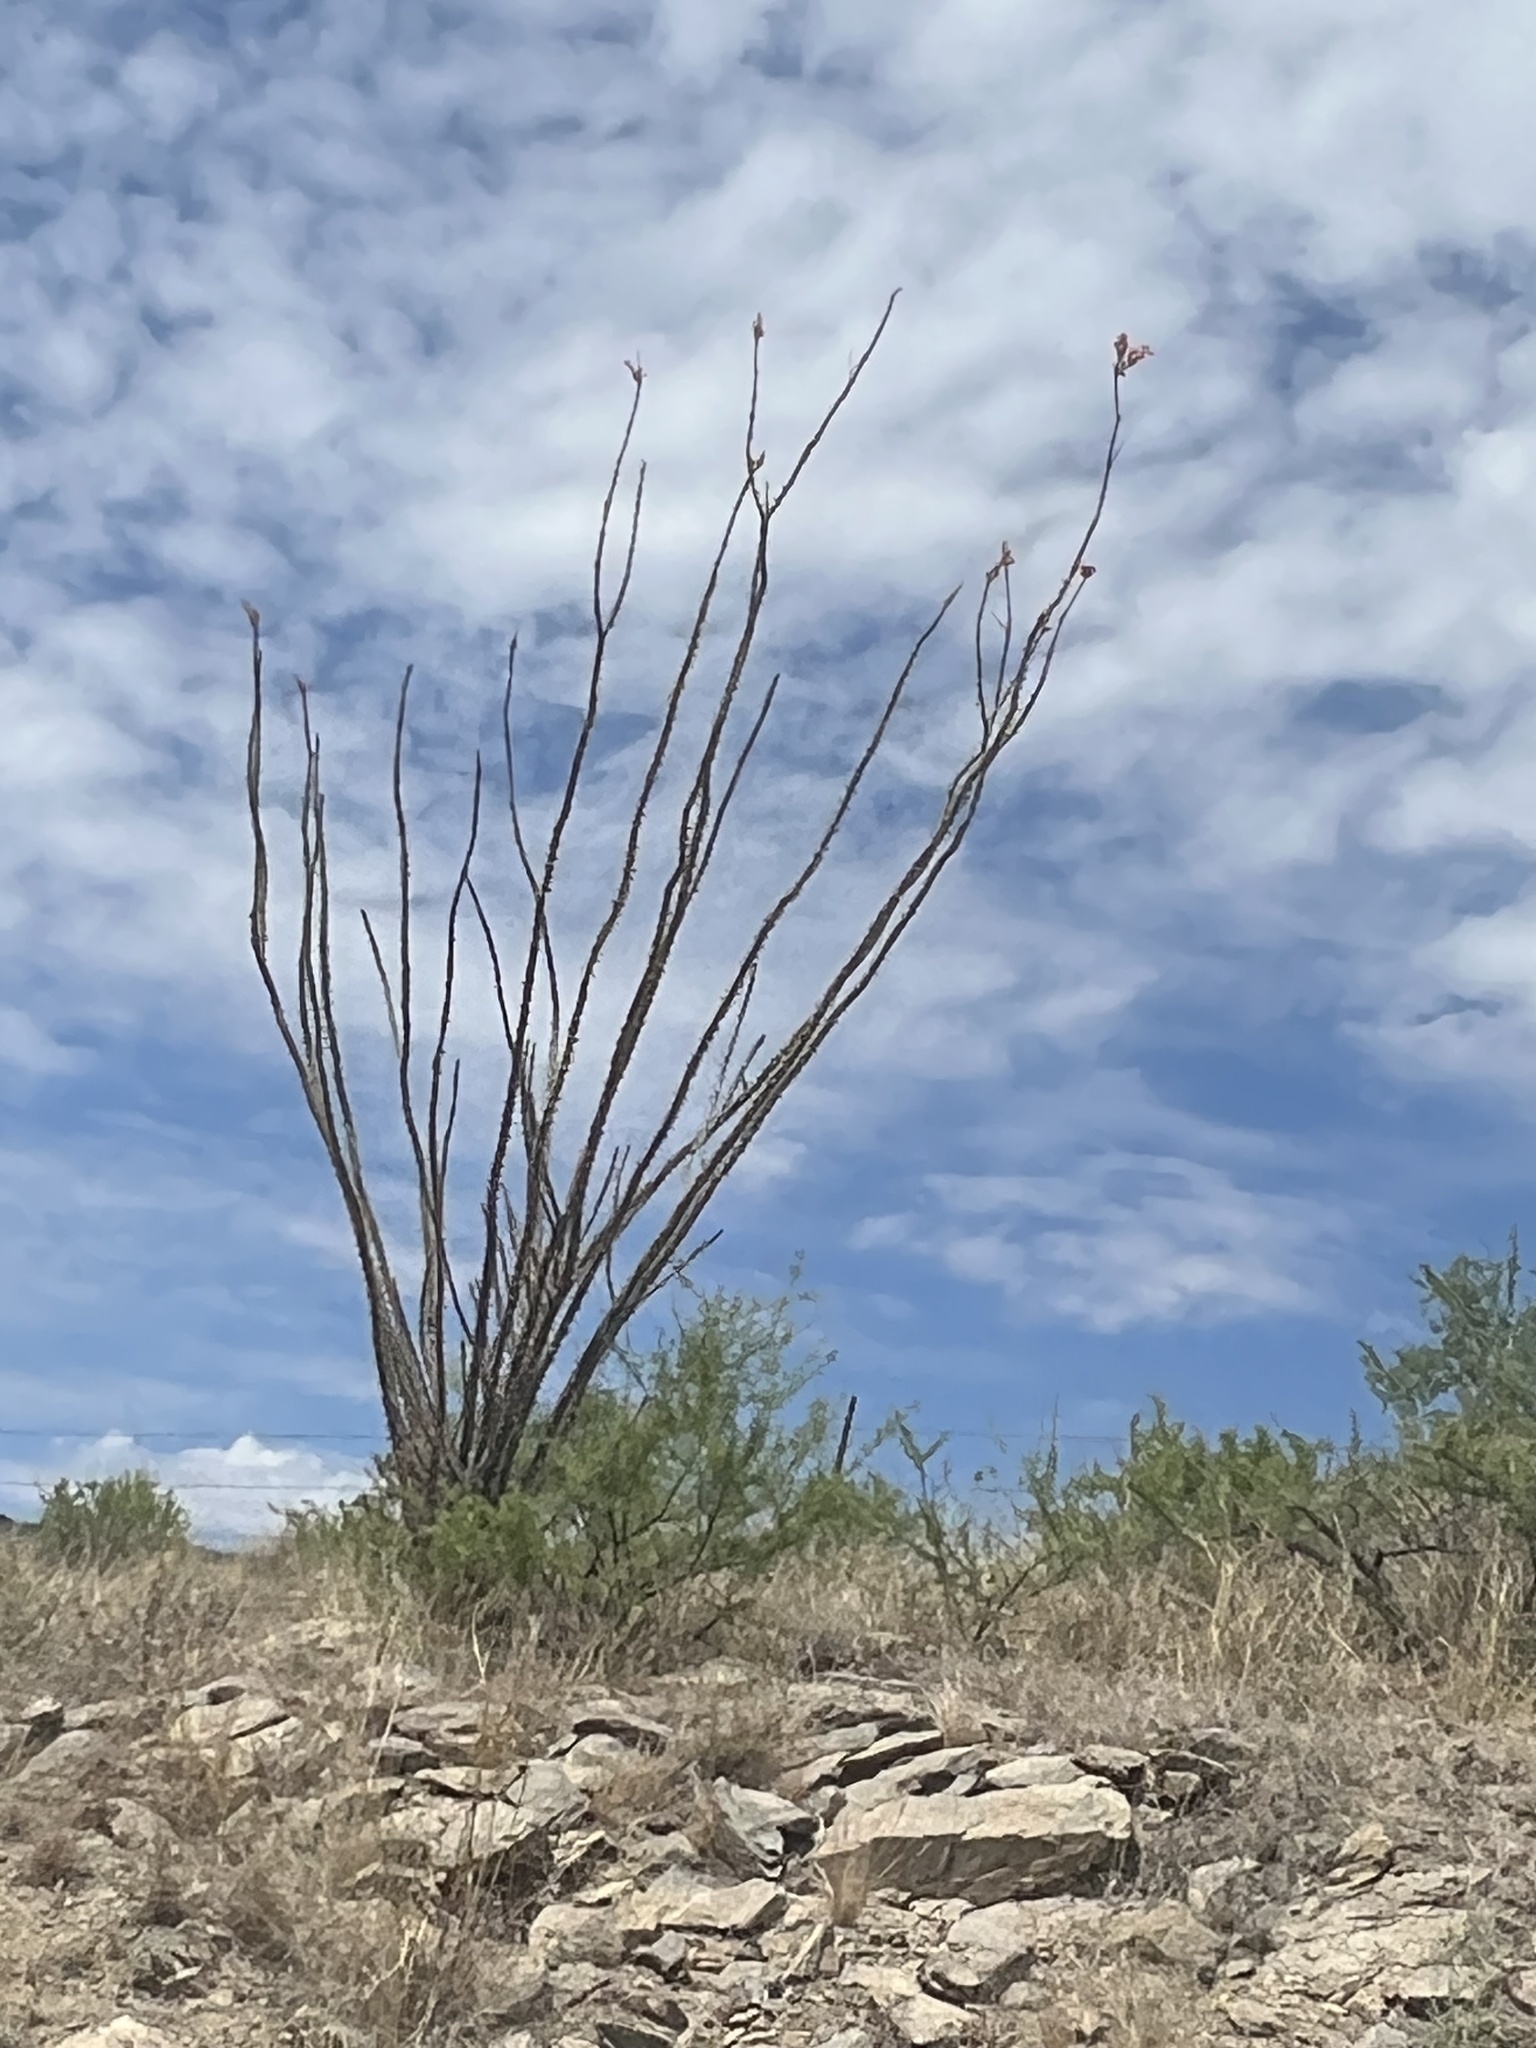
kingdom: Plantae
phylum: Tracheophyta
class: Magnoliopsida
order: Ericales
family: Fouquieriaceae
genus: Fouquieria
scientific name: Fouquieria splendens
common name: Vine-cactus
